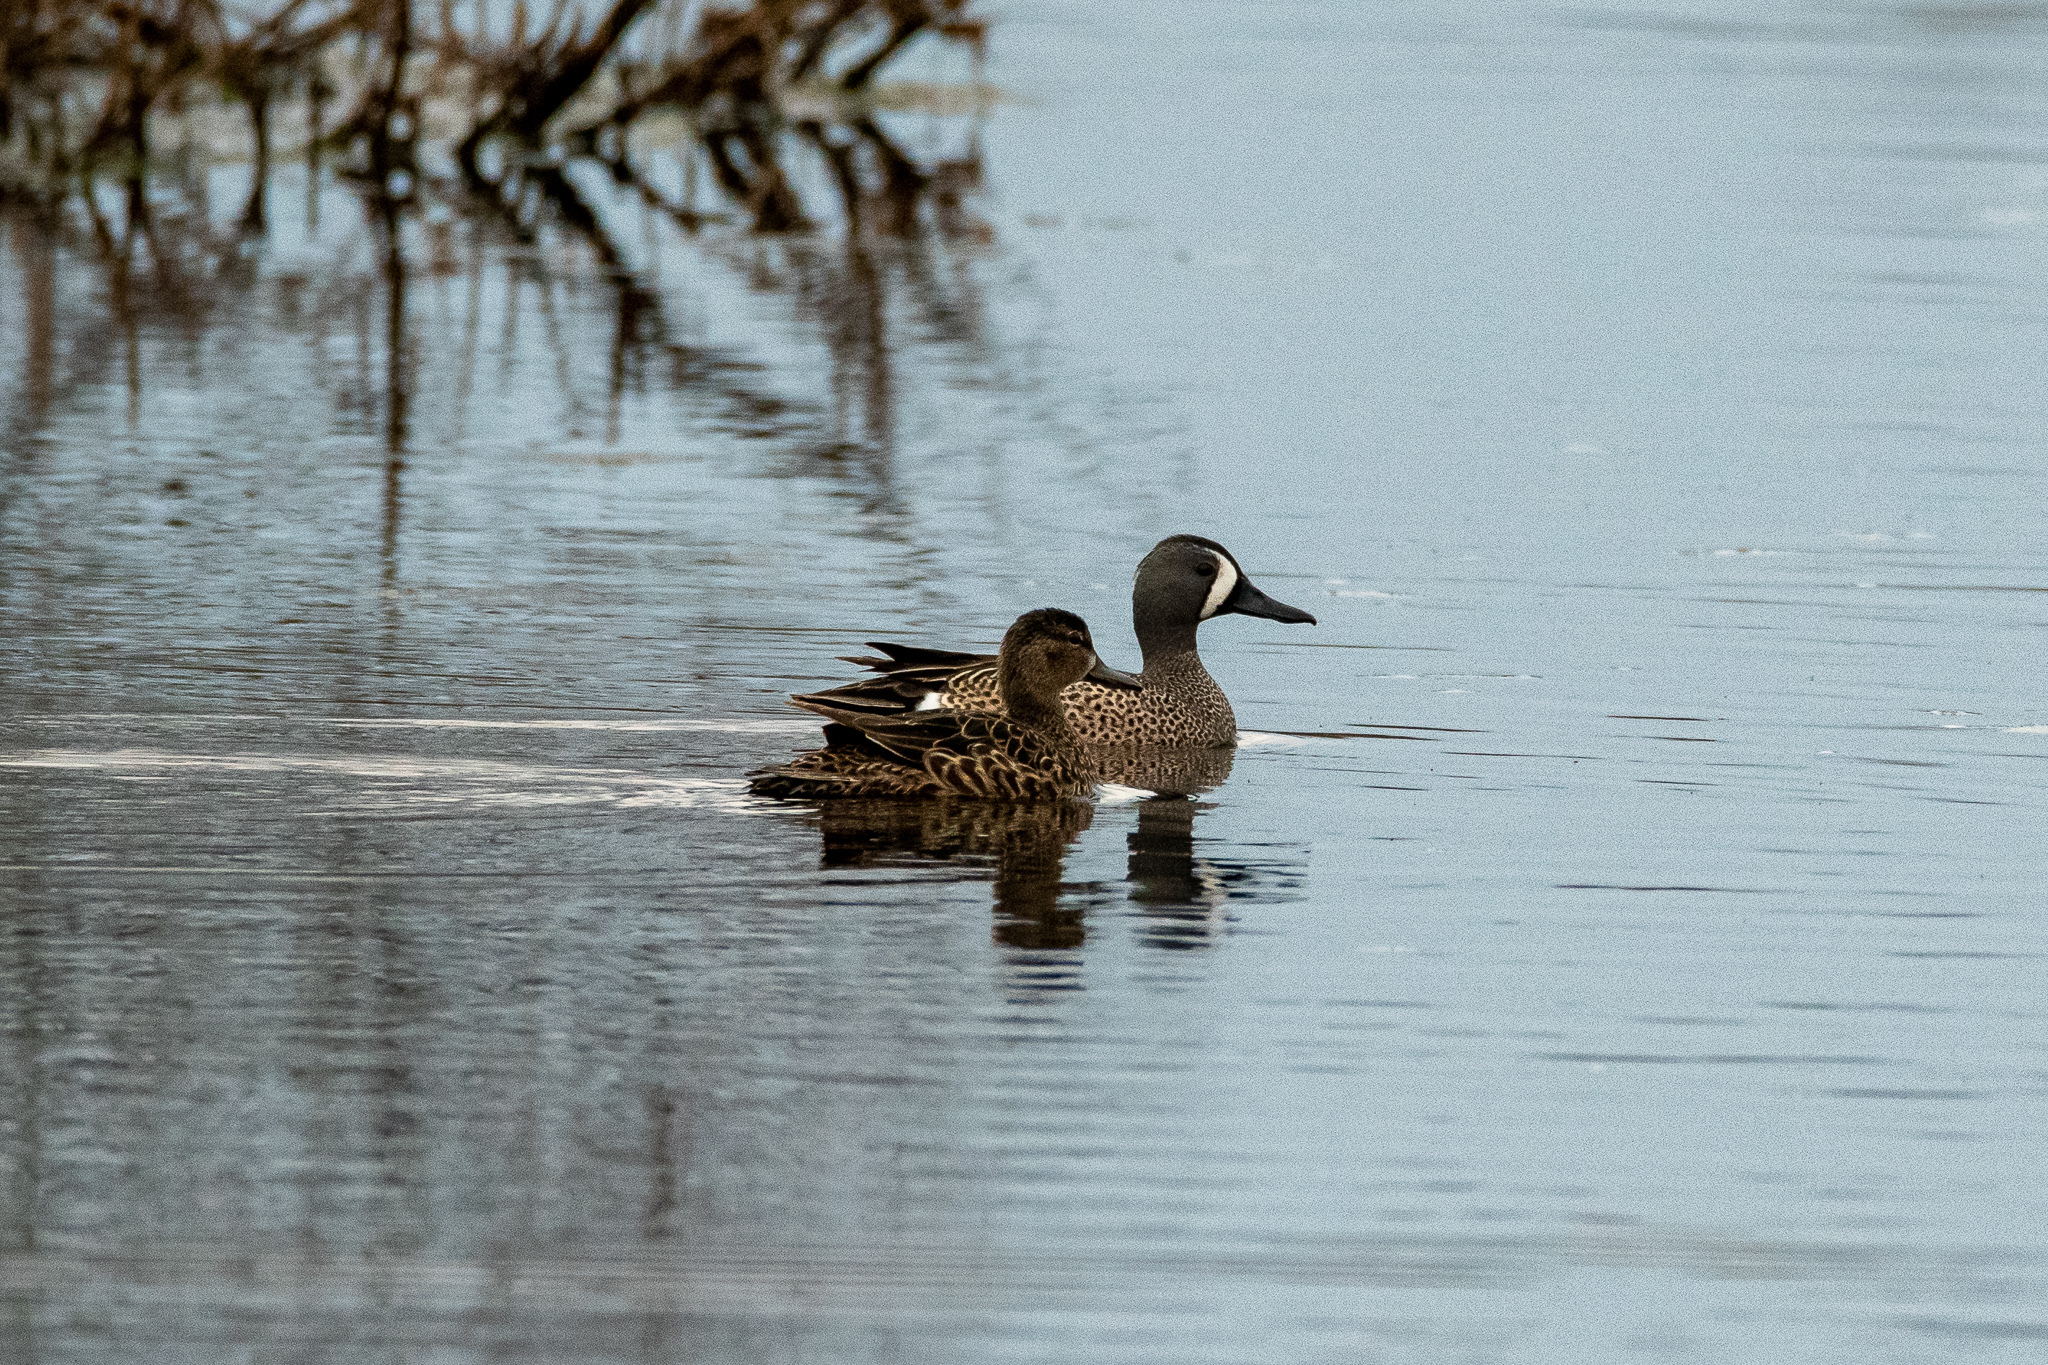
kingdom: Animalia
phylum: Chordata
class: Aves
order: Anseriformes
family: Anatidae
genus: Spatula
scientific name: Spatula discors
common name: Blue-winged teal
